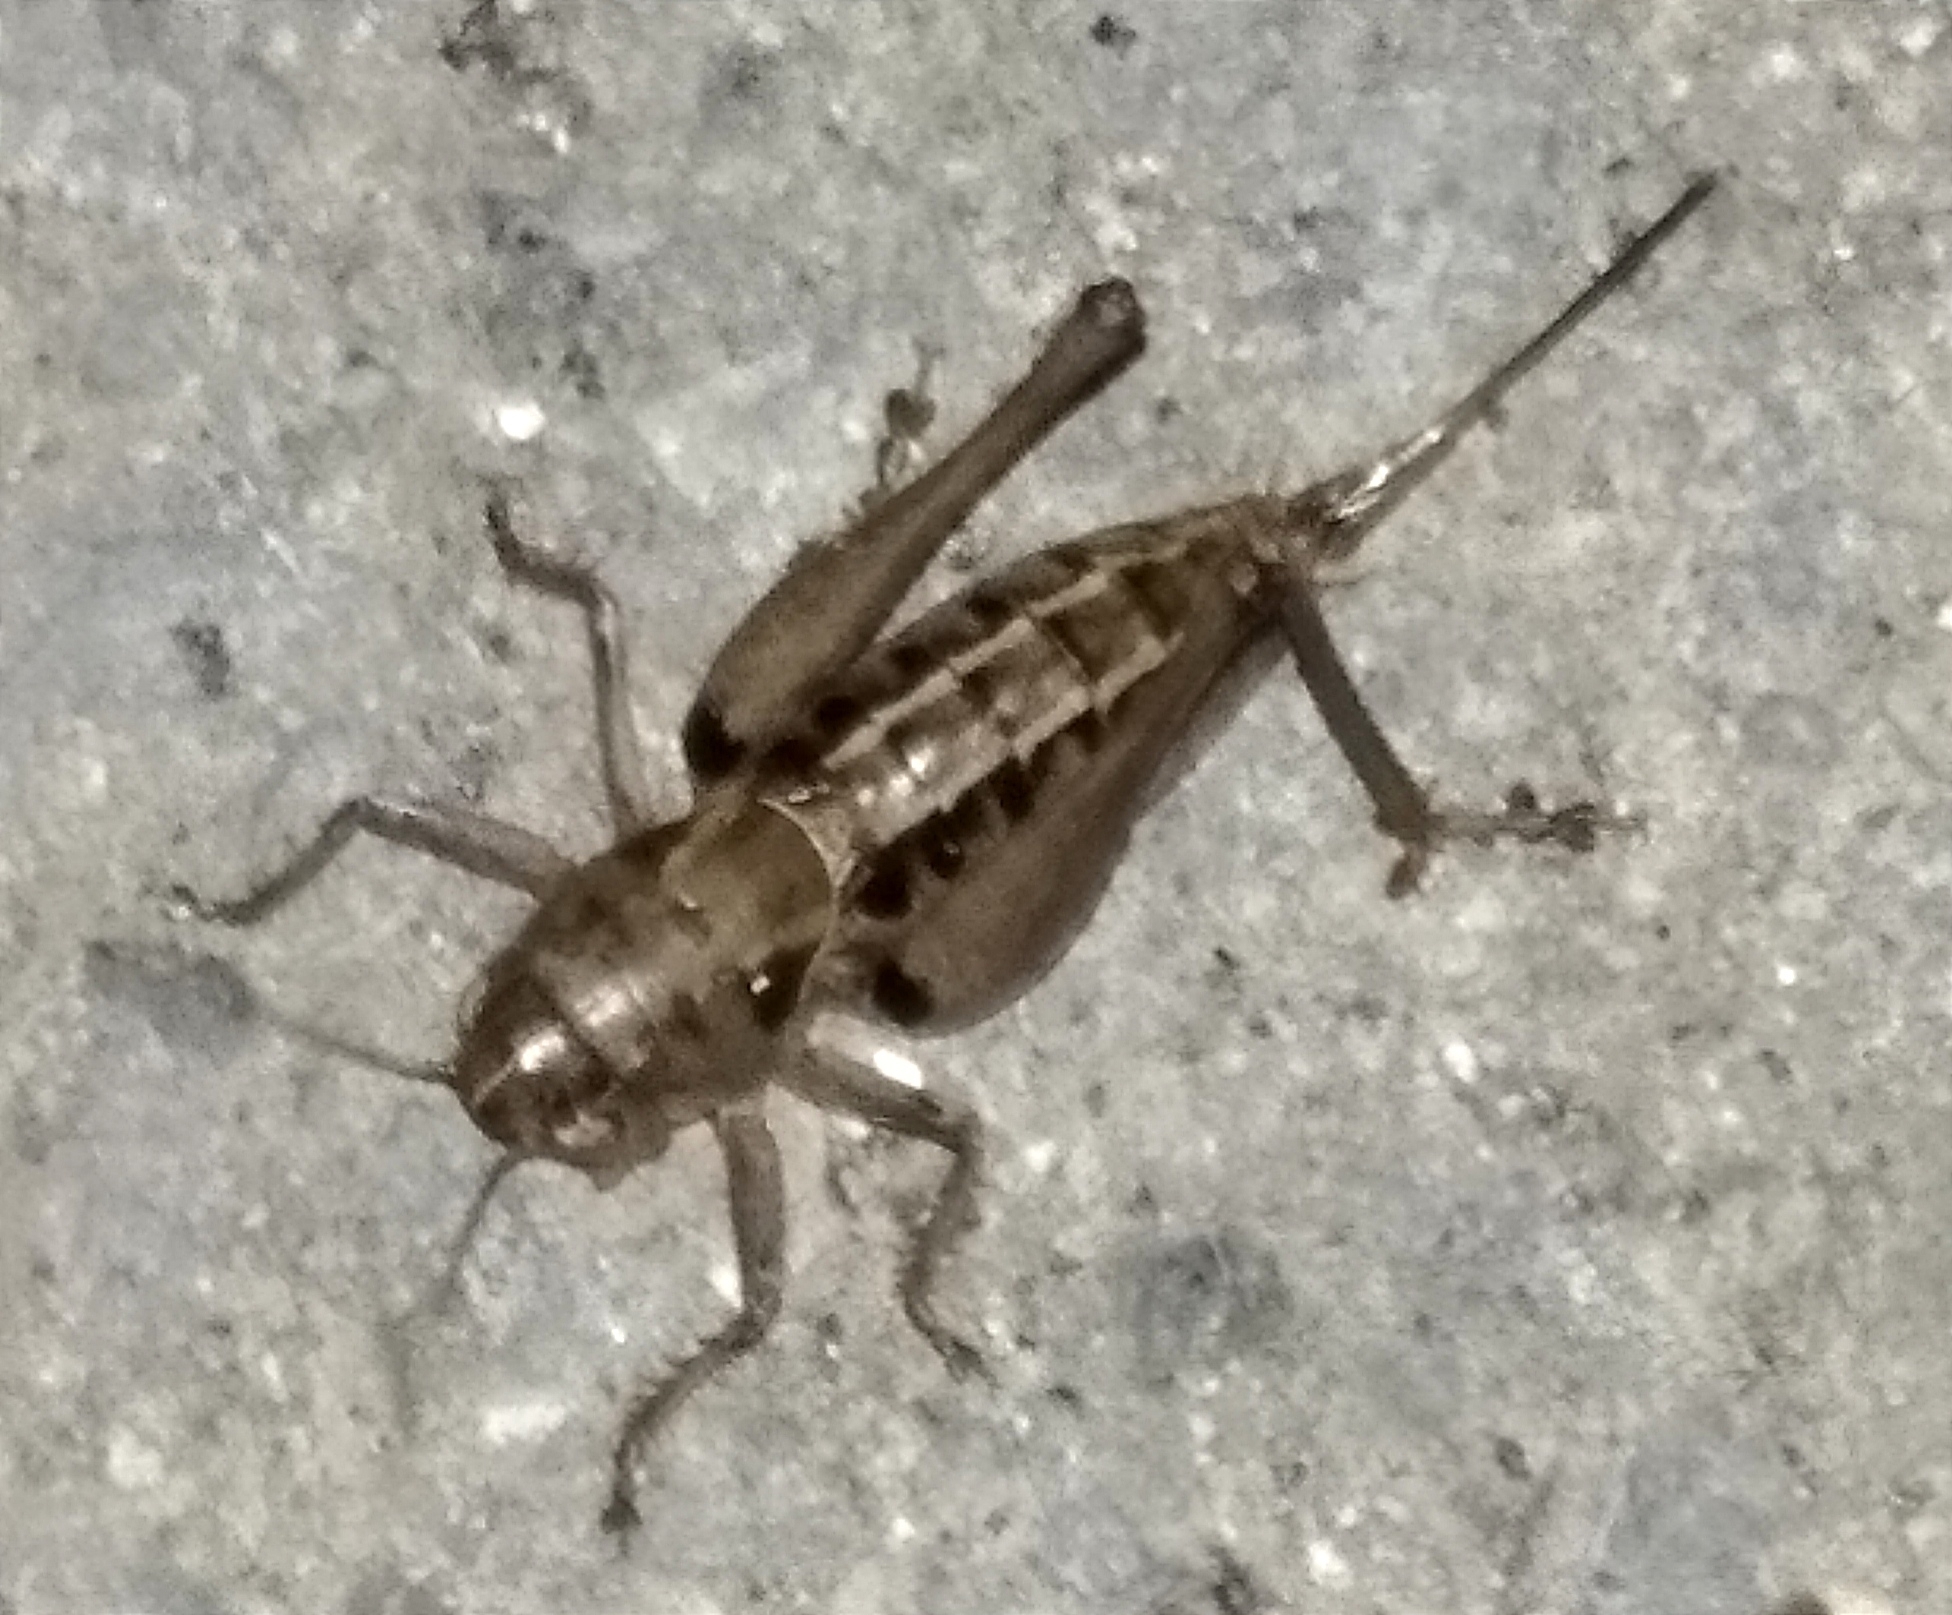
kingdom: Animalia
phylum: Arthropoda
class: Insecta
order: Orthoptera
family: Tettigoniidae
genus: Bucephaloptera
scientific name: Bucephaloptera bucephala
